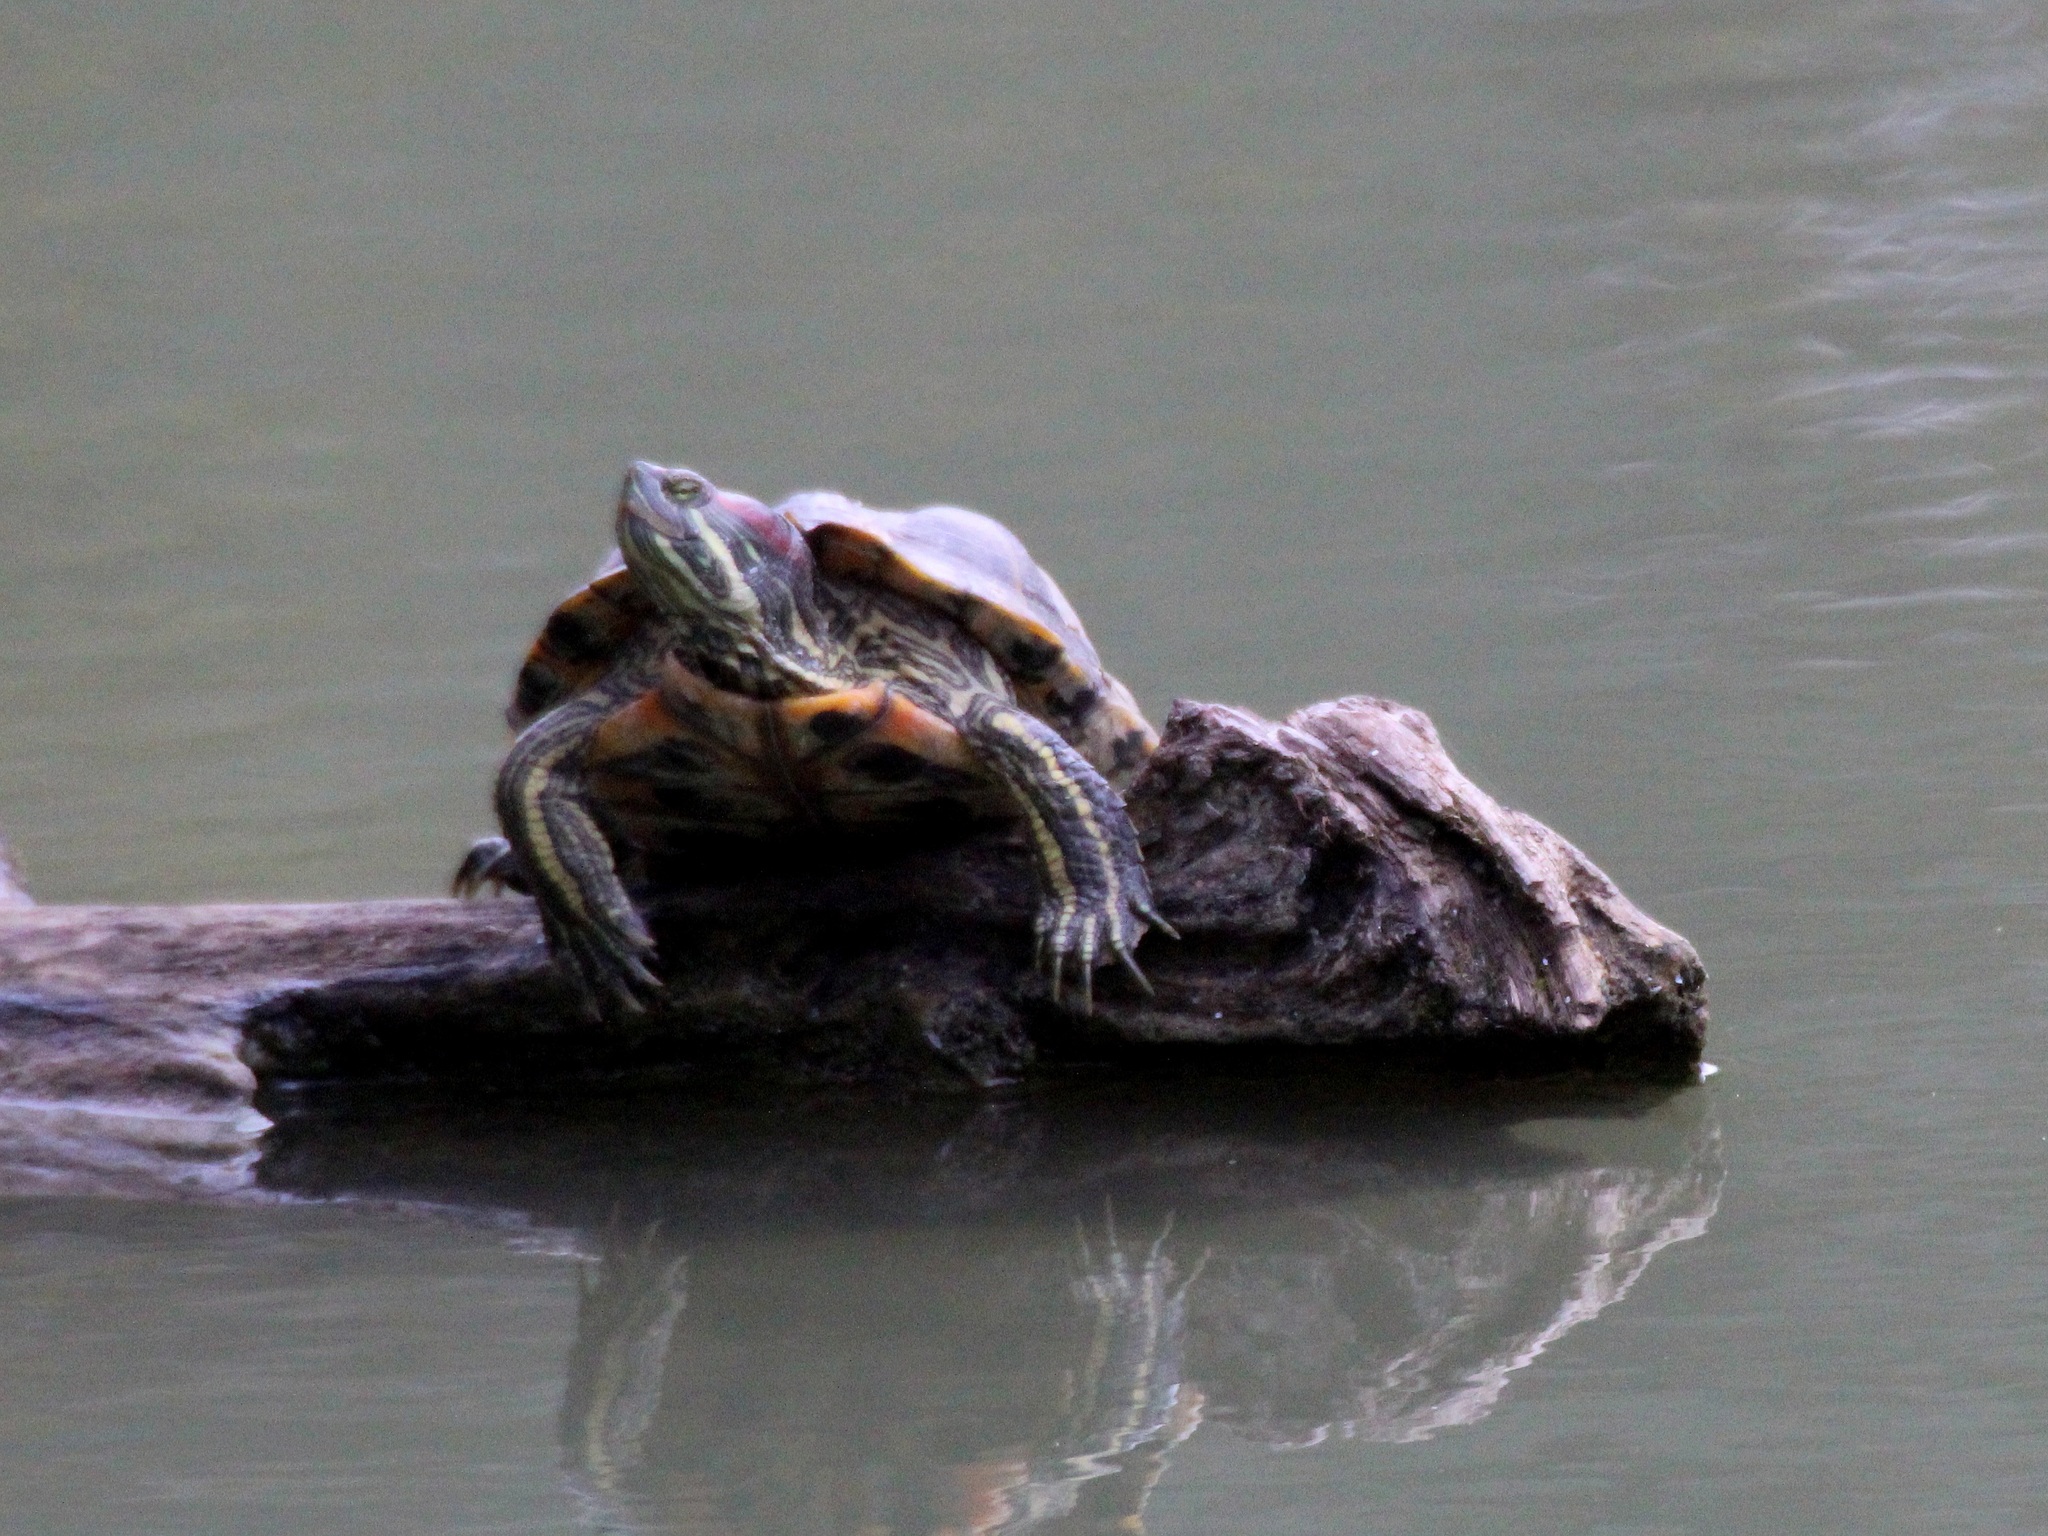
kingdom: Animalia
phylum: Chordata
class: Testudines
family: Emydidae
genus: Trachemys
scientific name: Trachemys scripta
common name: Slider
